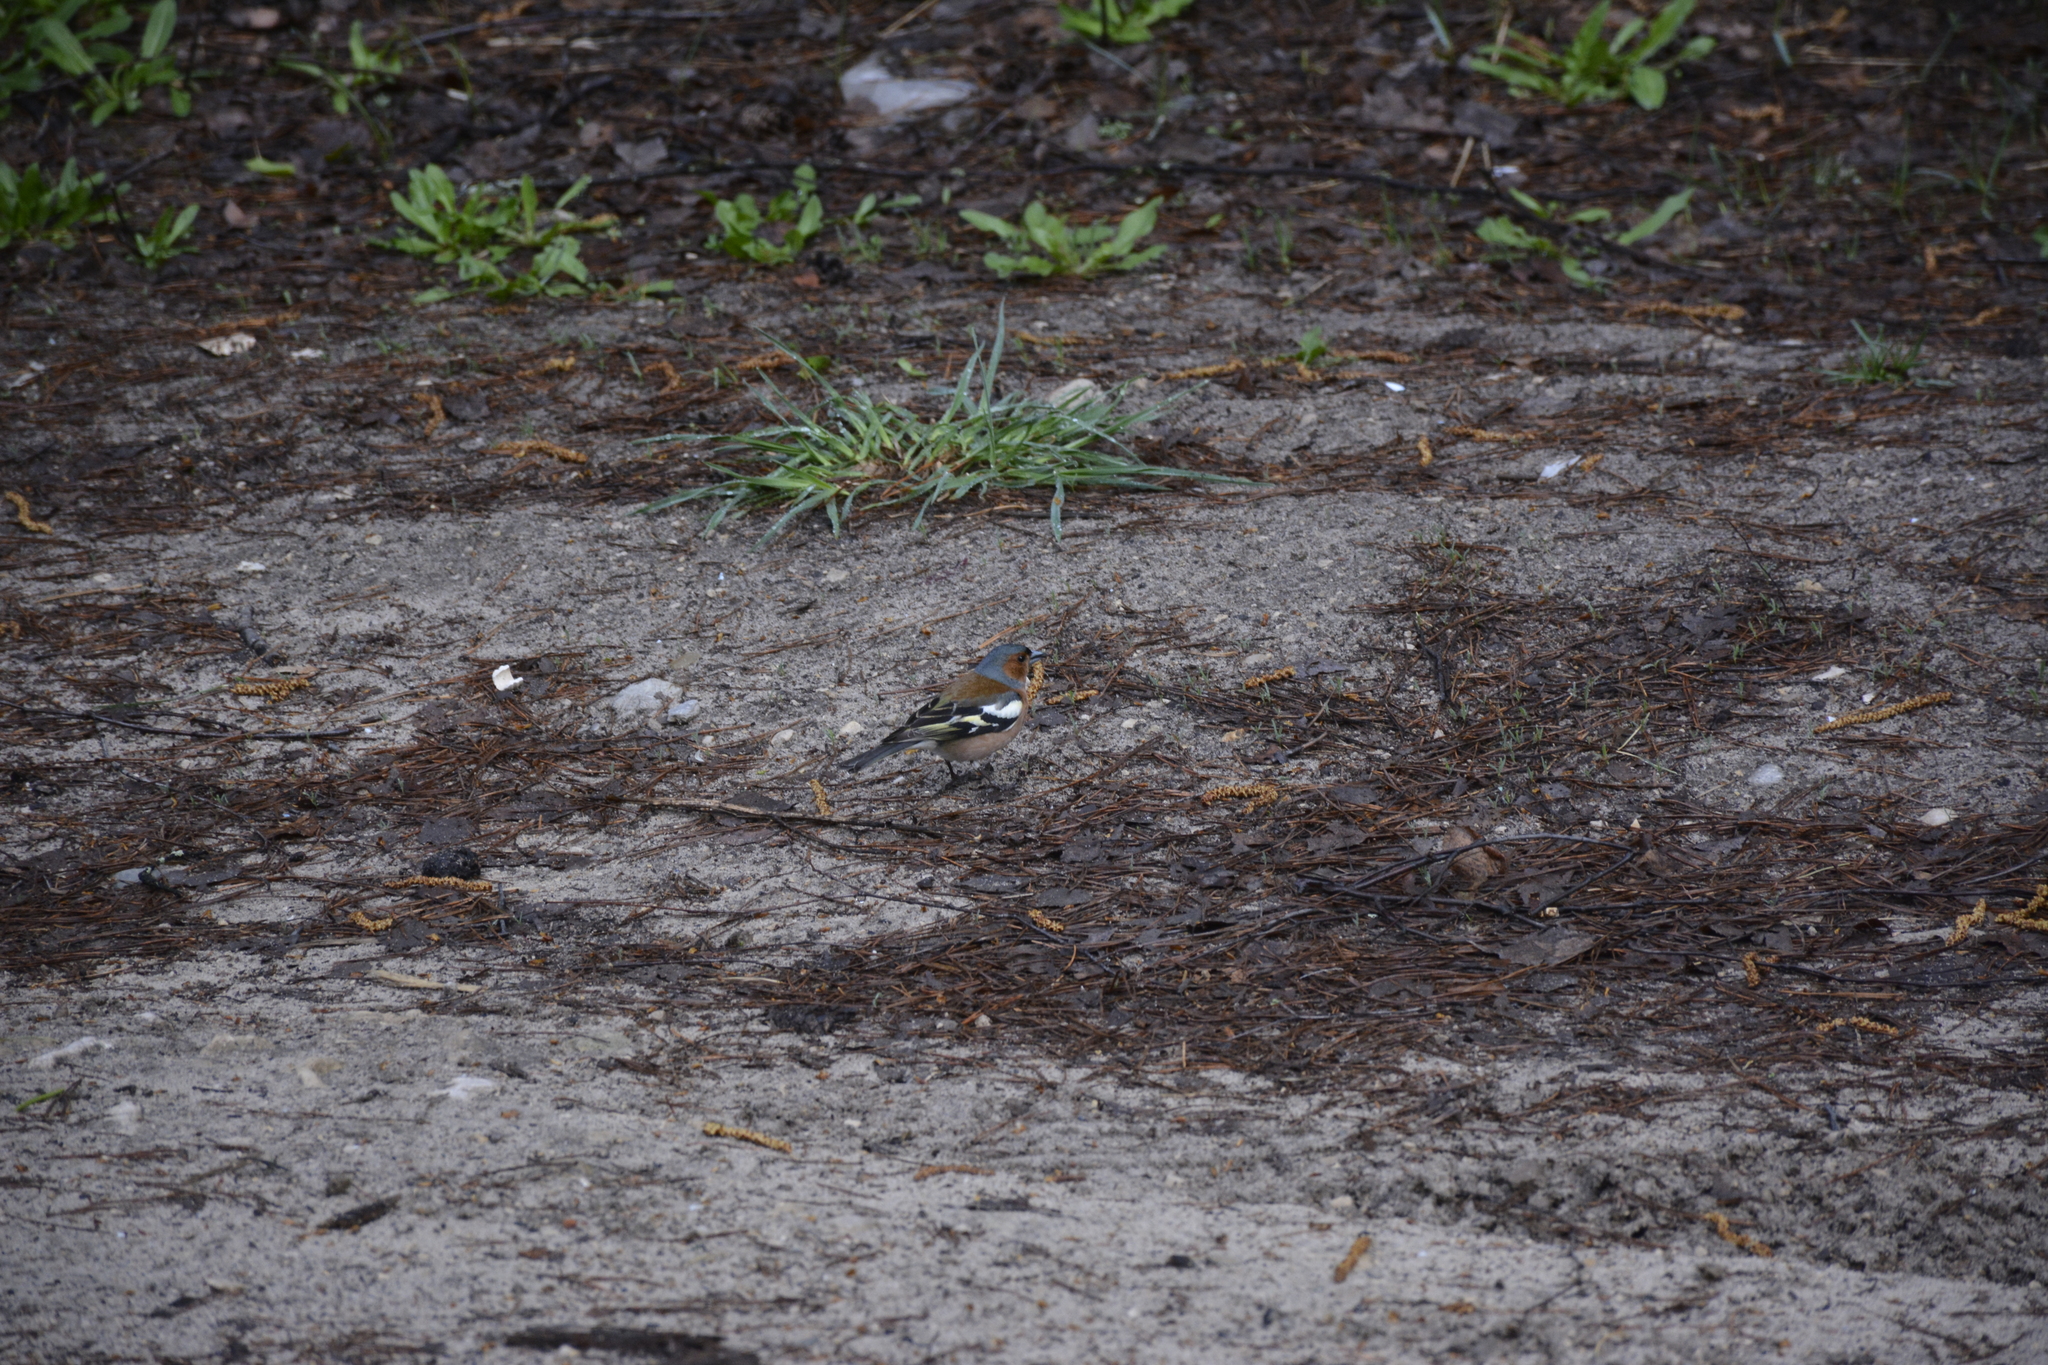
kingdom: Animalia
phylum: Chordata
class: Aves
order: Passeriformes
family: Fringillidae
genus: Fringilla
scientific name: Fringilla coelebs
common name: Common chaffinch
